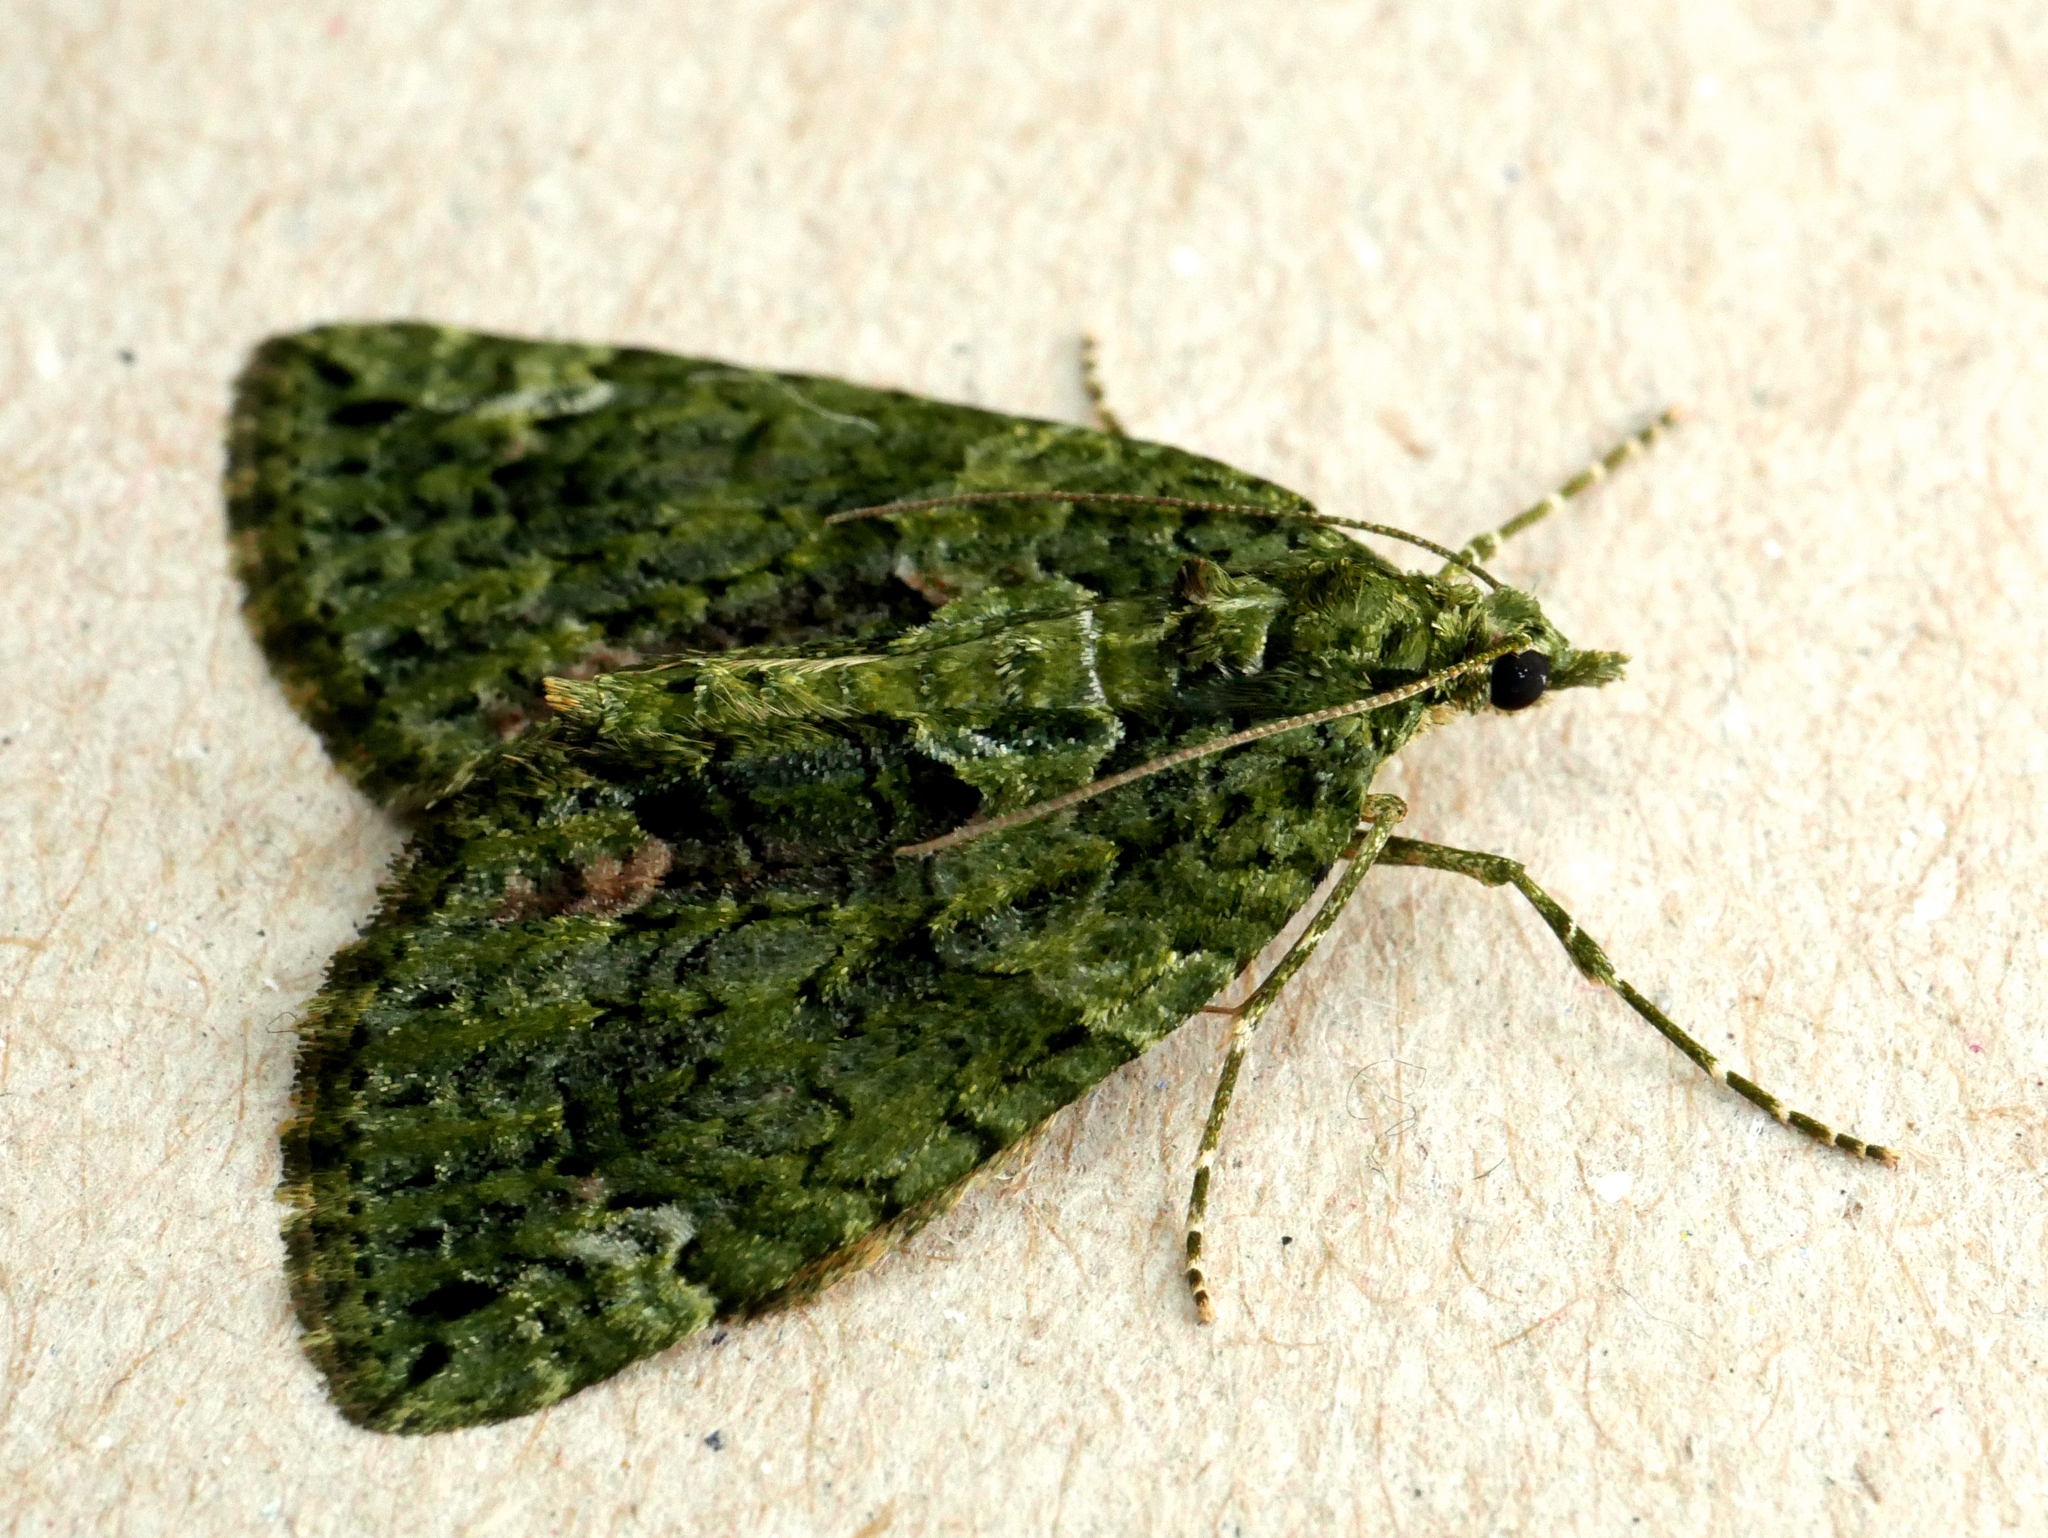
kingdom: Animalia
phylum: Arthropoda
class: Insecta
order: Lepidoptera
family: Geometridae
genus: Chloroclysta
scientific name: Chloroclysta siterata
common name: Red-green carpet
